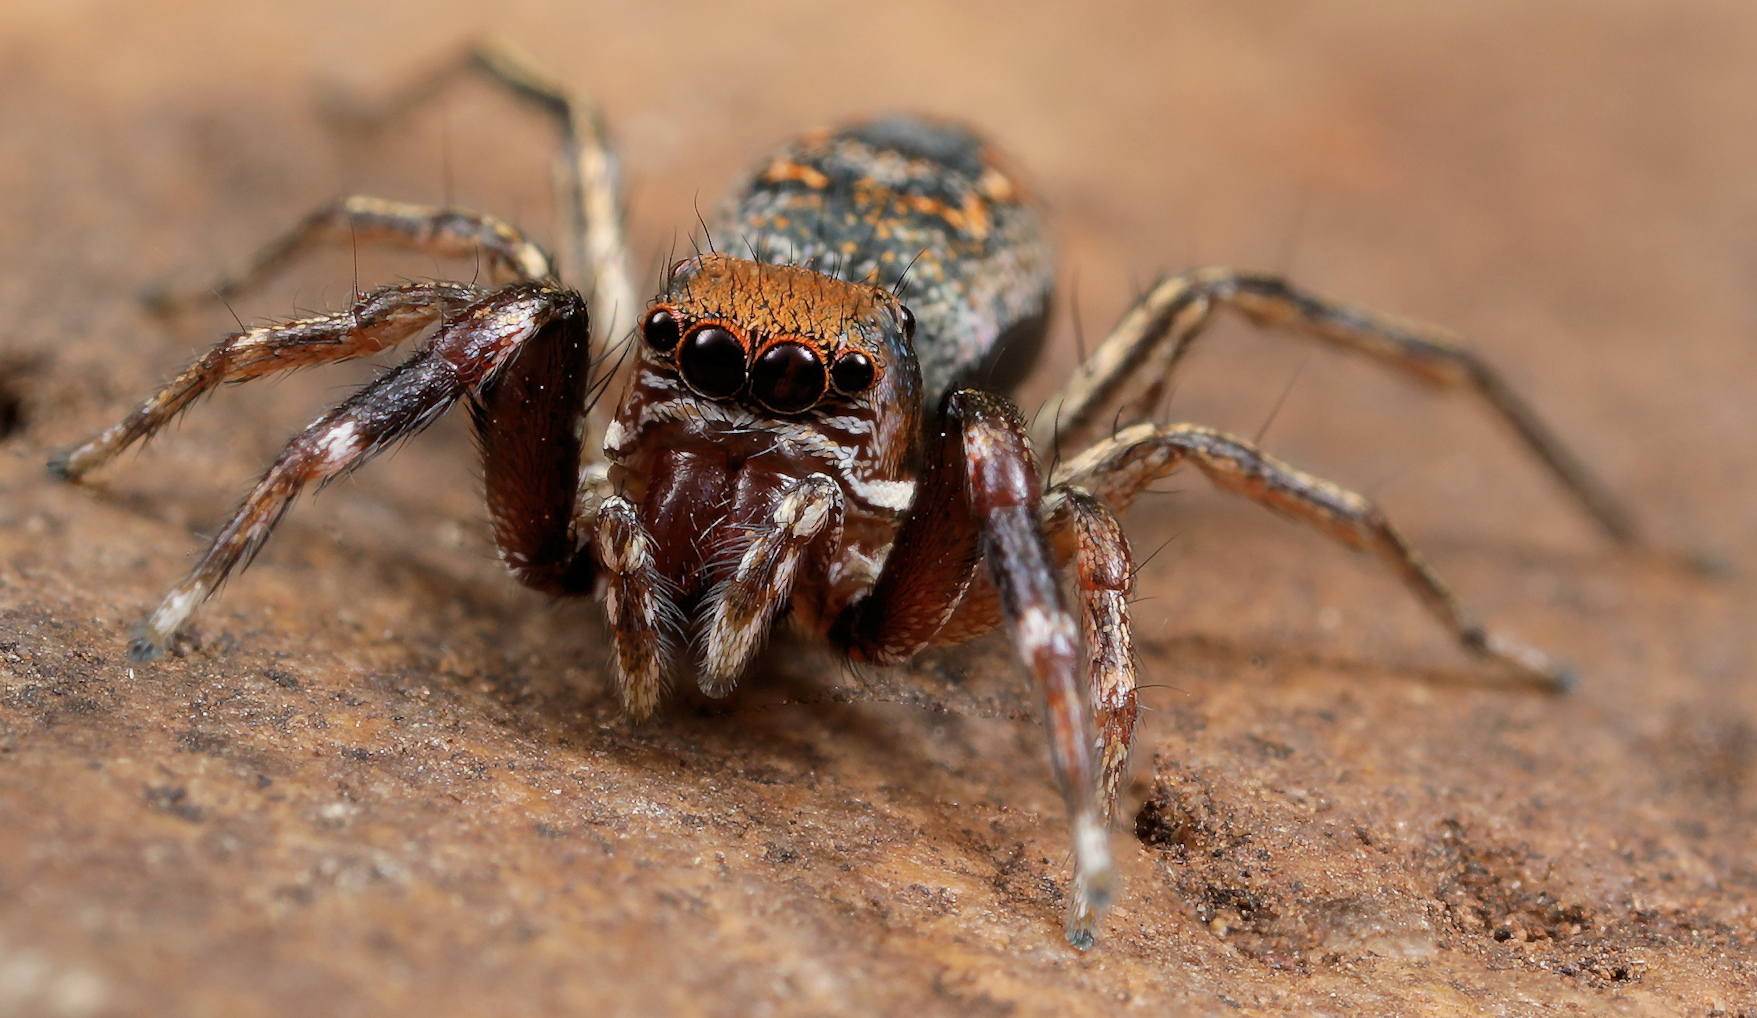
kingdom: Animalia
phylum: Arthropoda
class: Arachnida
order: Araneae
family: Salticidae
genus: Natta
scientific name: Natta chionogaster
